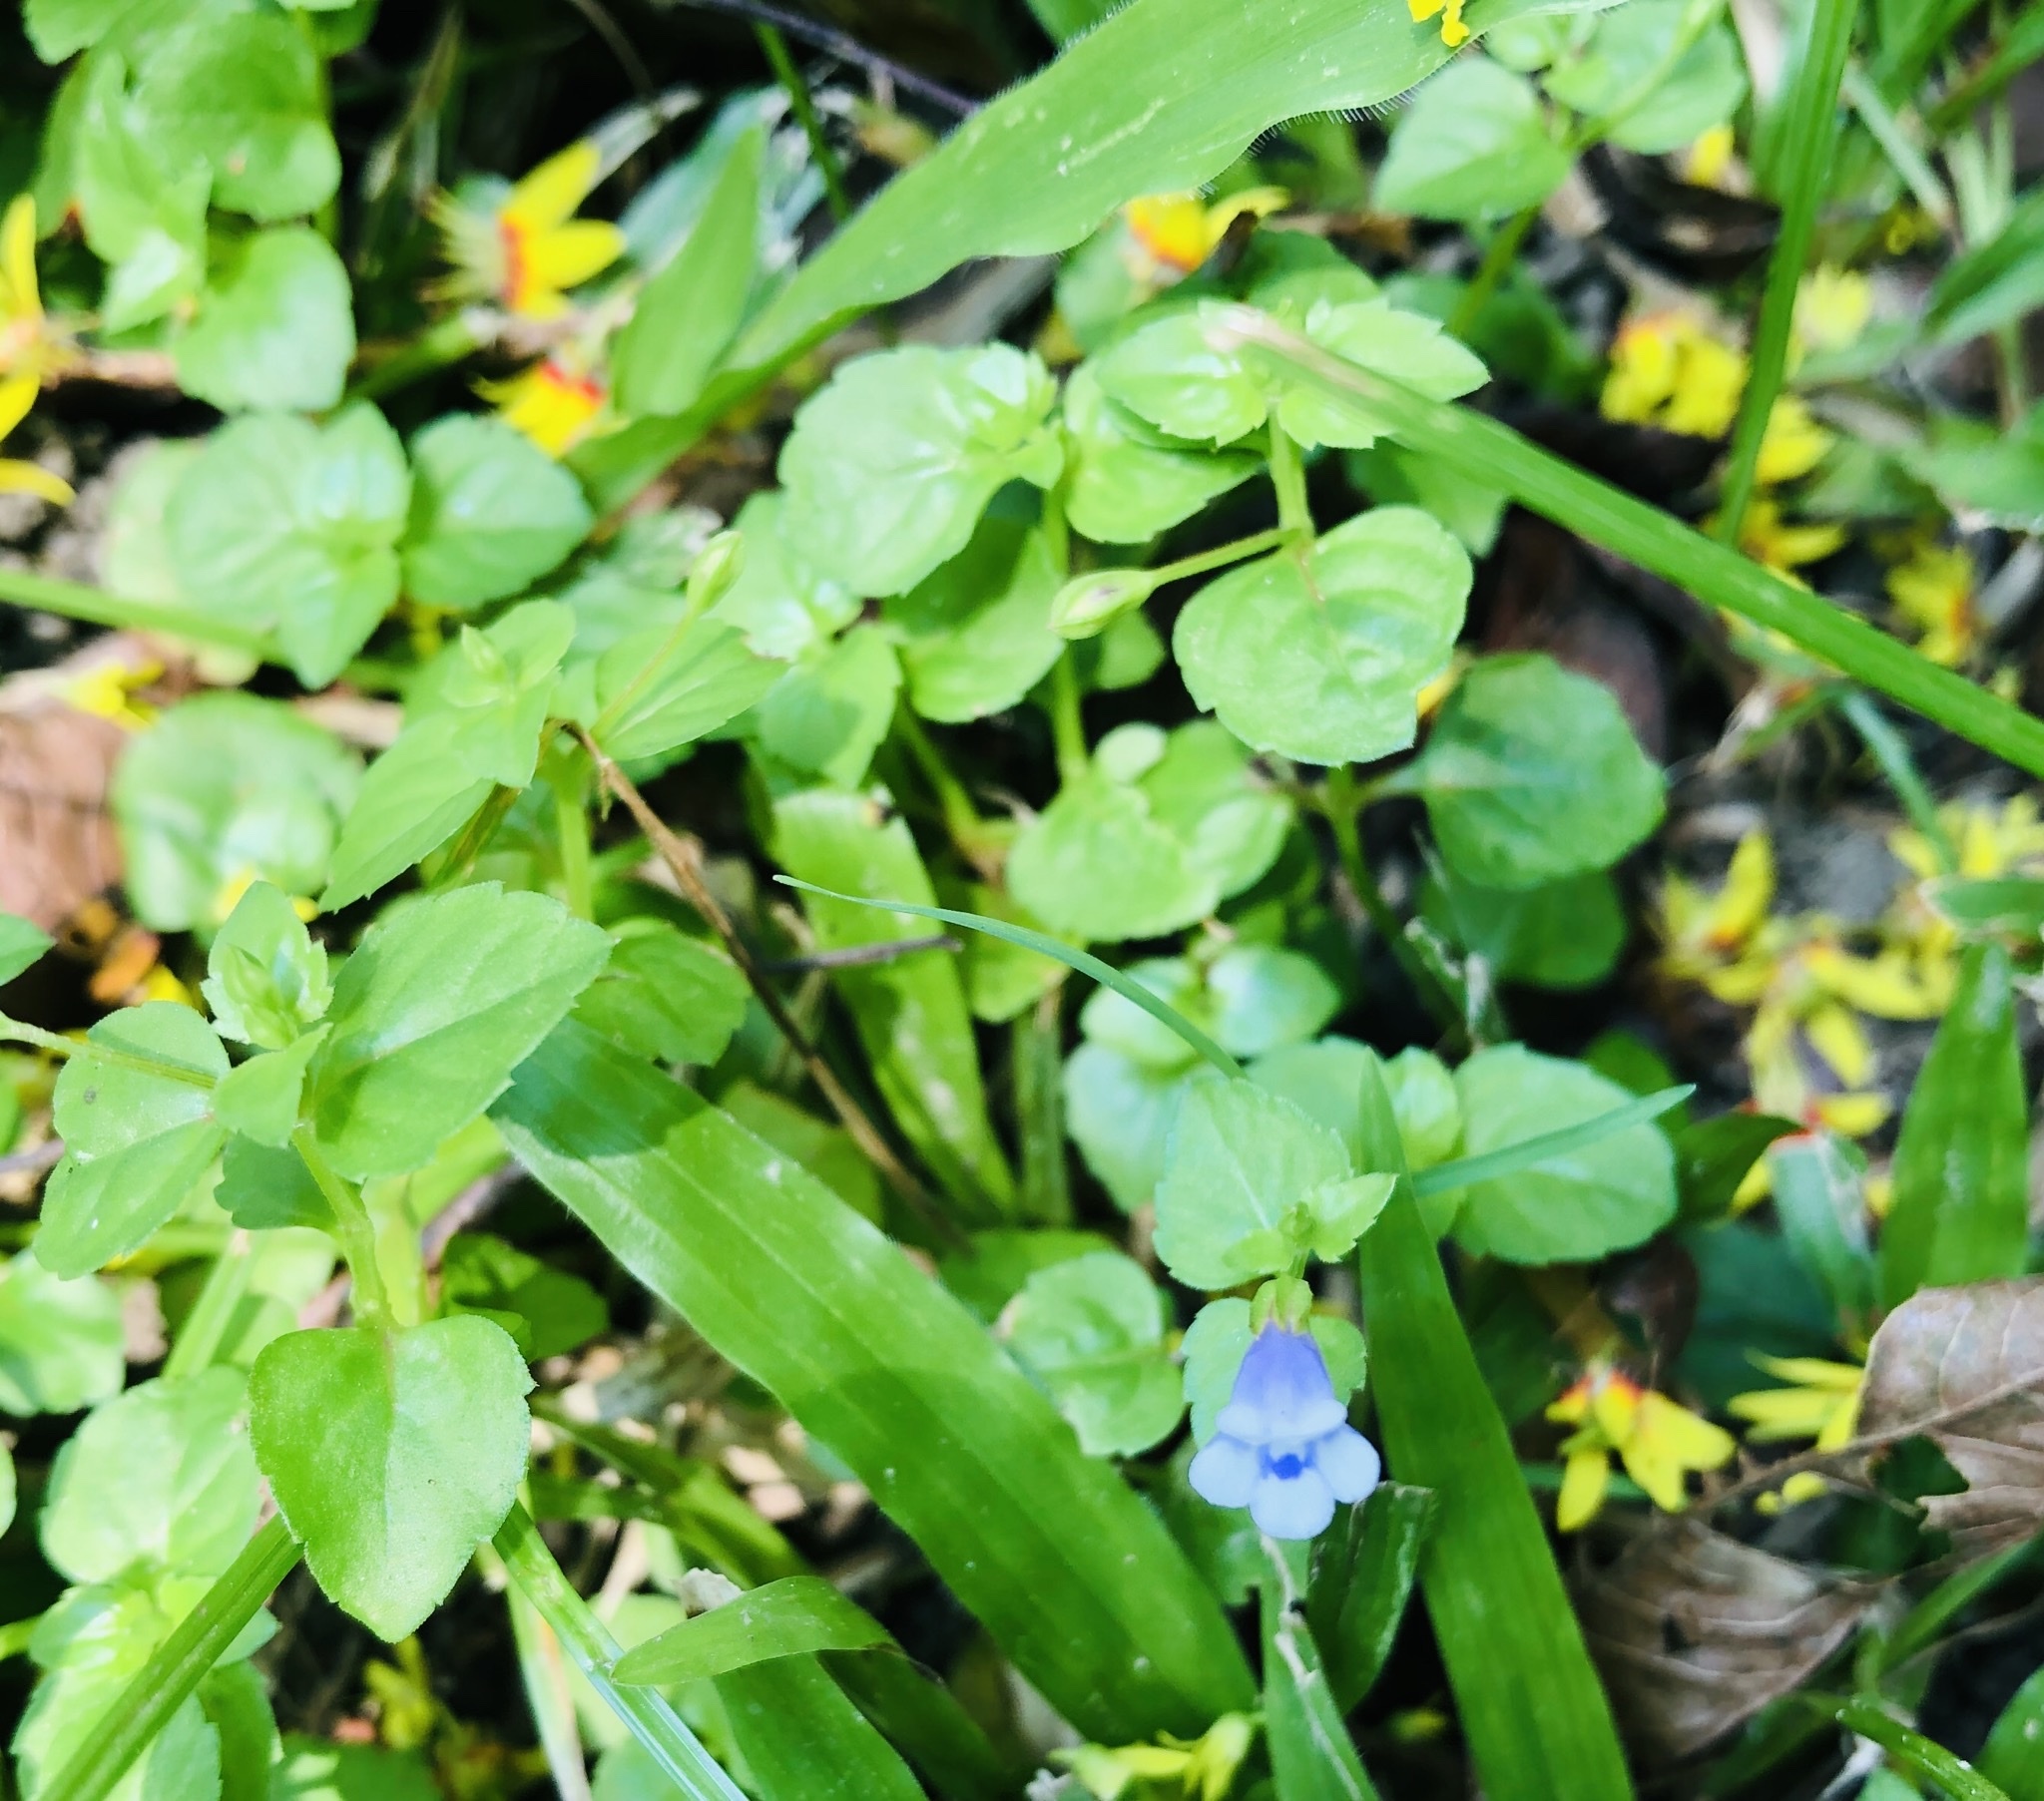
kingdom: Plantae
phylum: Tracheophyta
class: Magnoliopsida
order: Lamiales
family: Linderniaceae
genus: Torenia
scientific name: Torenia crustacea
